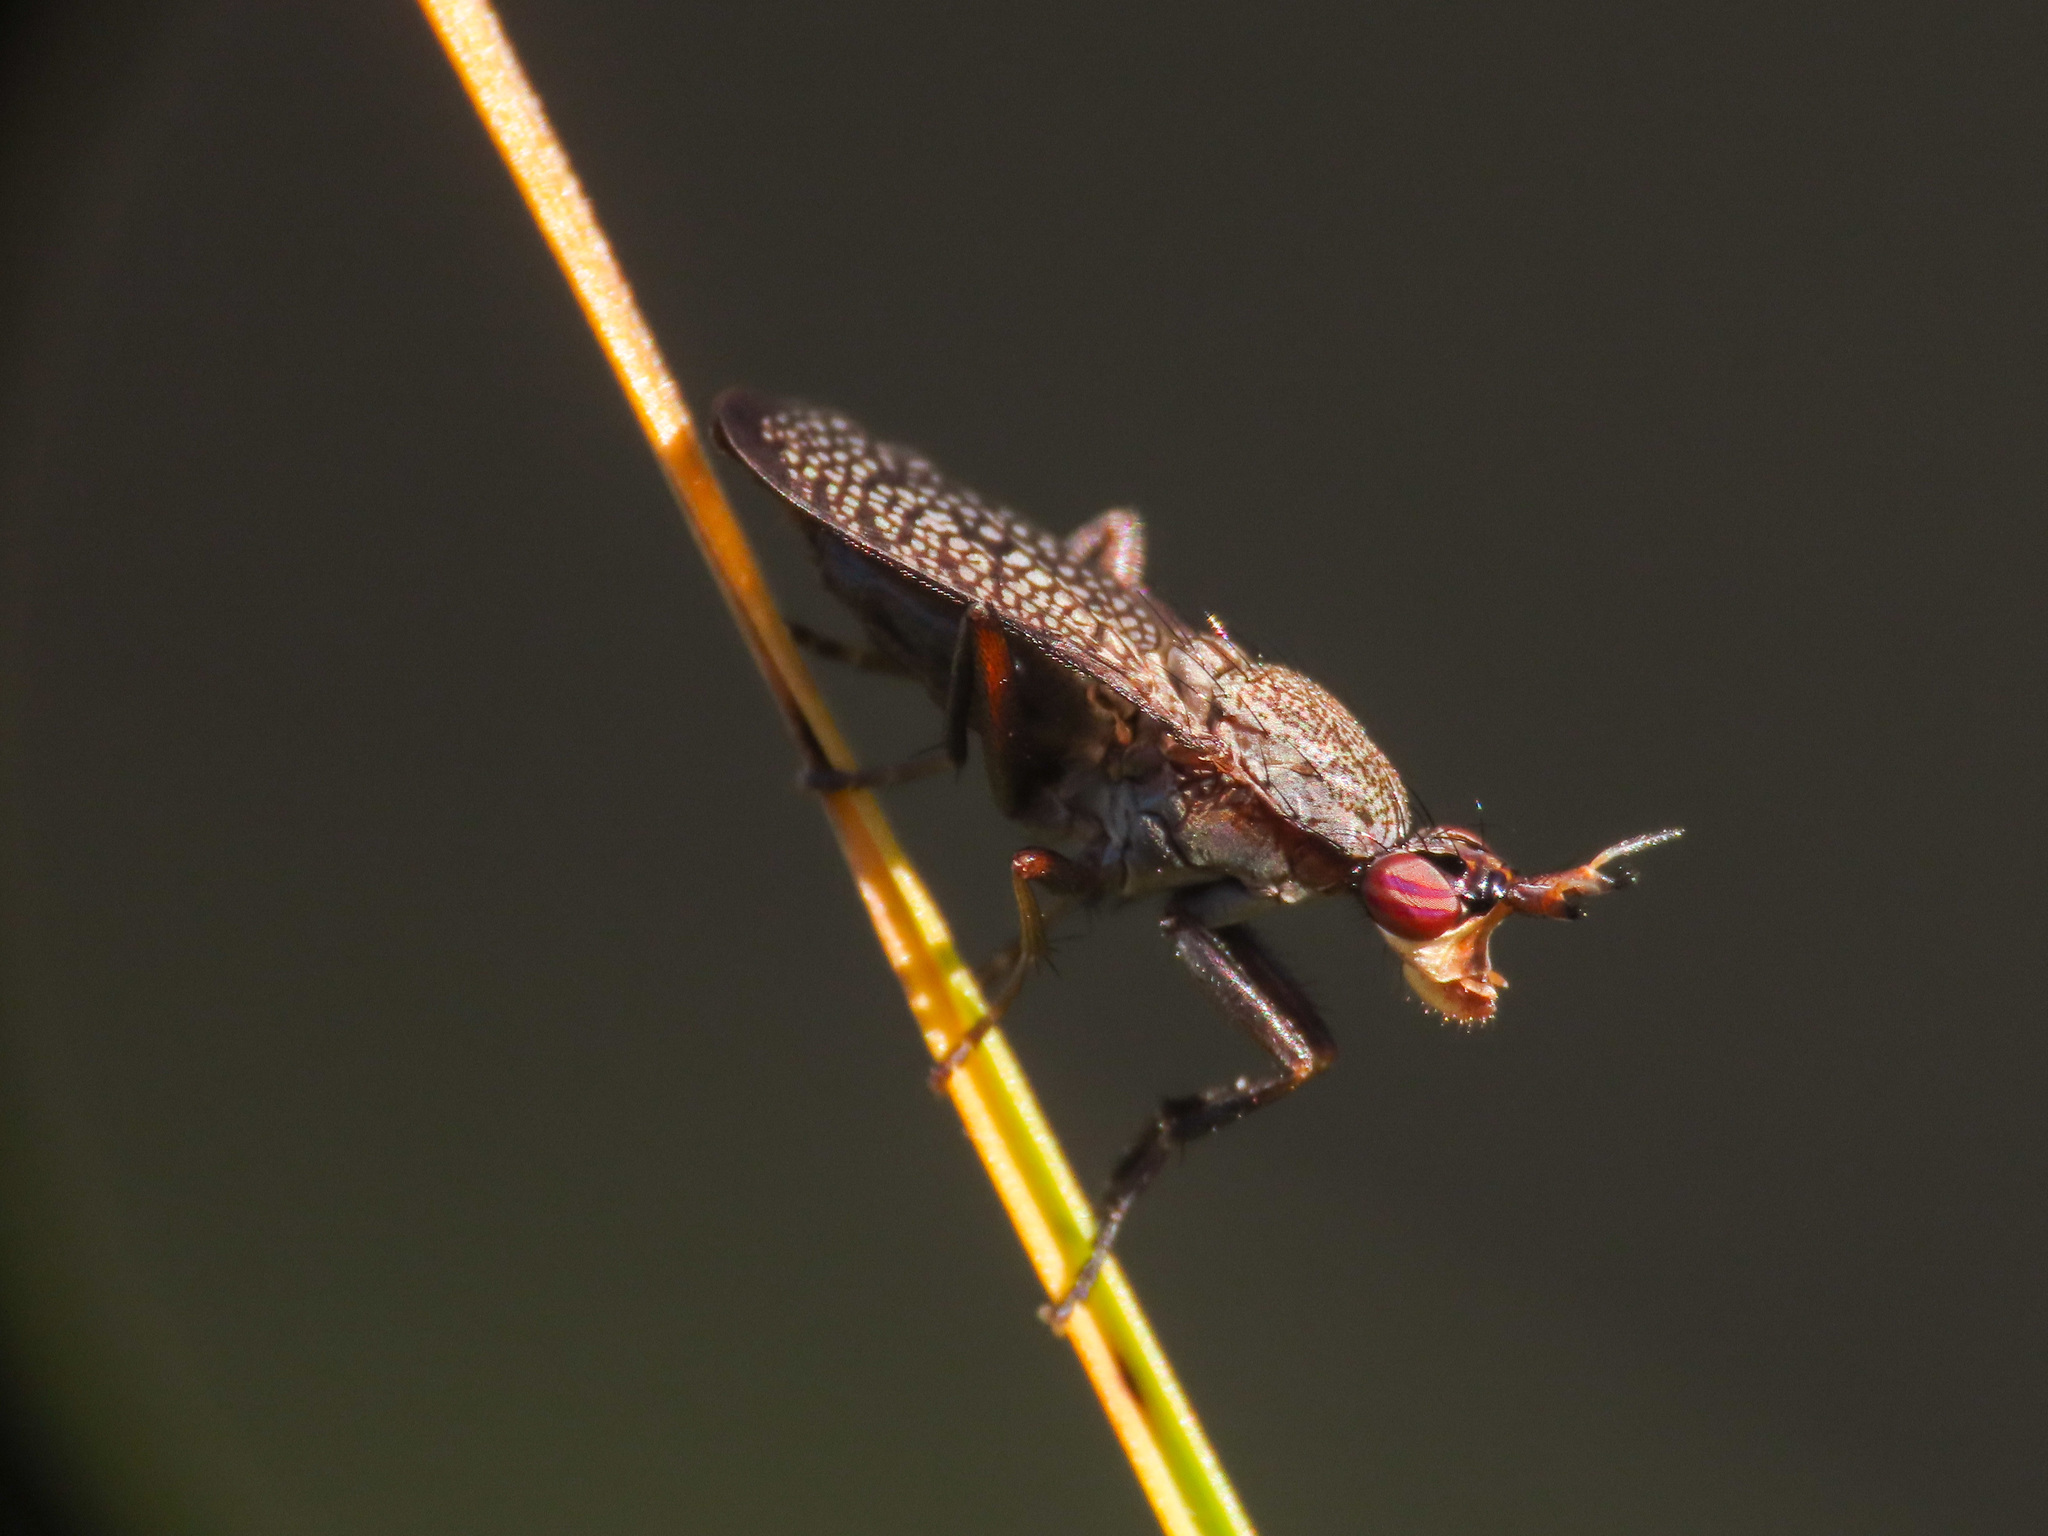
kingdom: Animalia
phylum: Arthropoda
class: Insecta
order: Diptera
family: Sciomyzidae
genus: Coremacera
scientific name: Coremacera marginata
